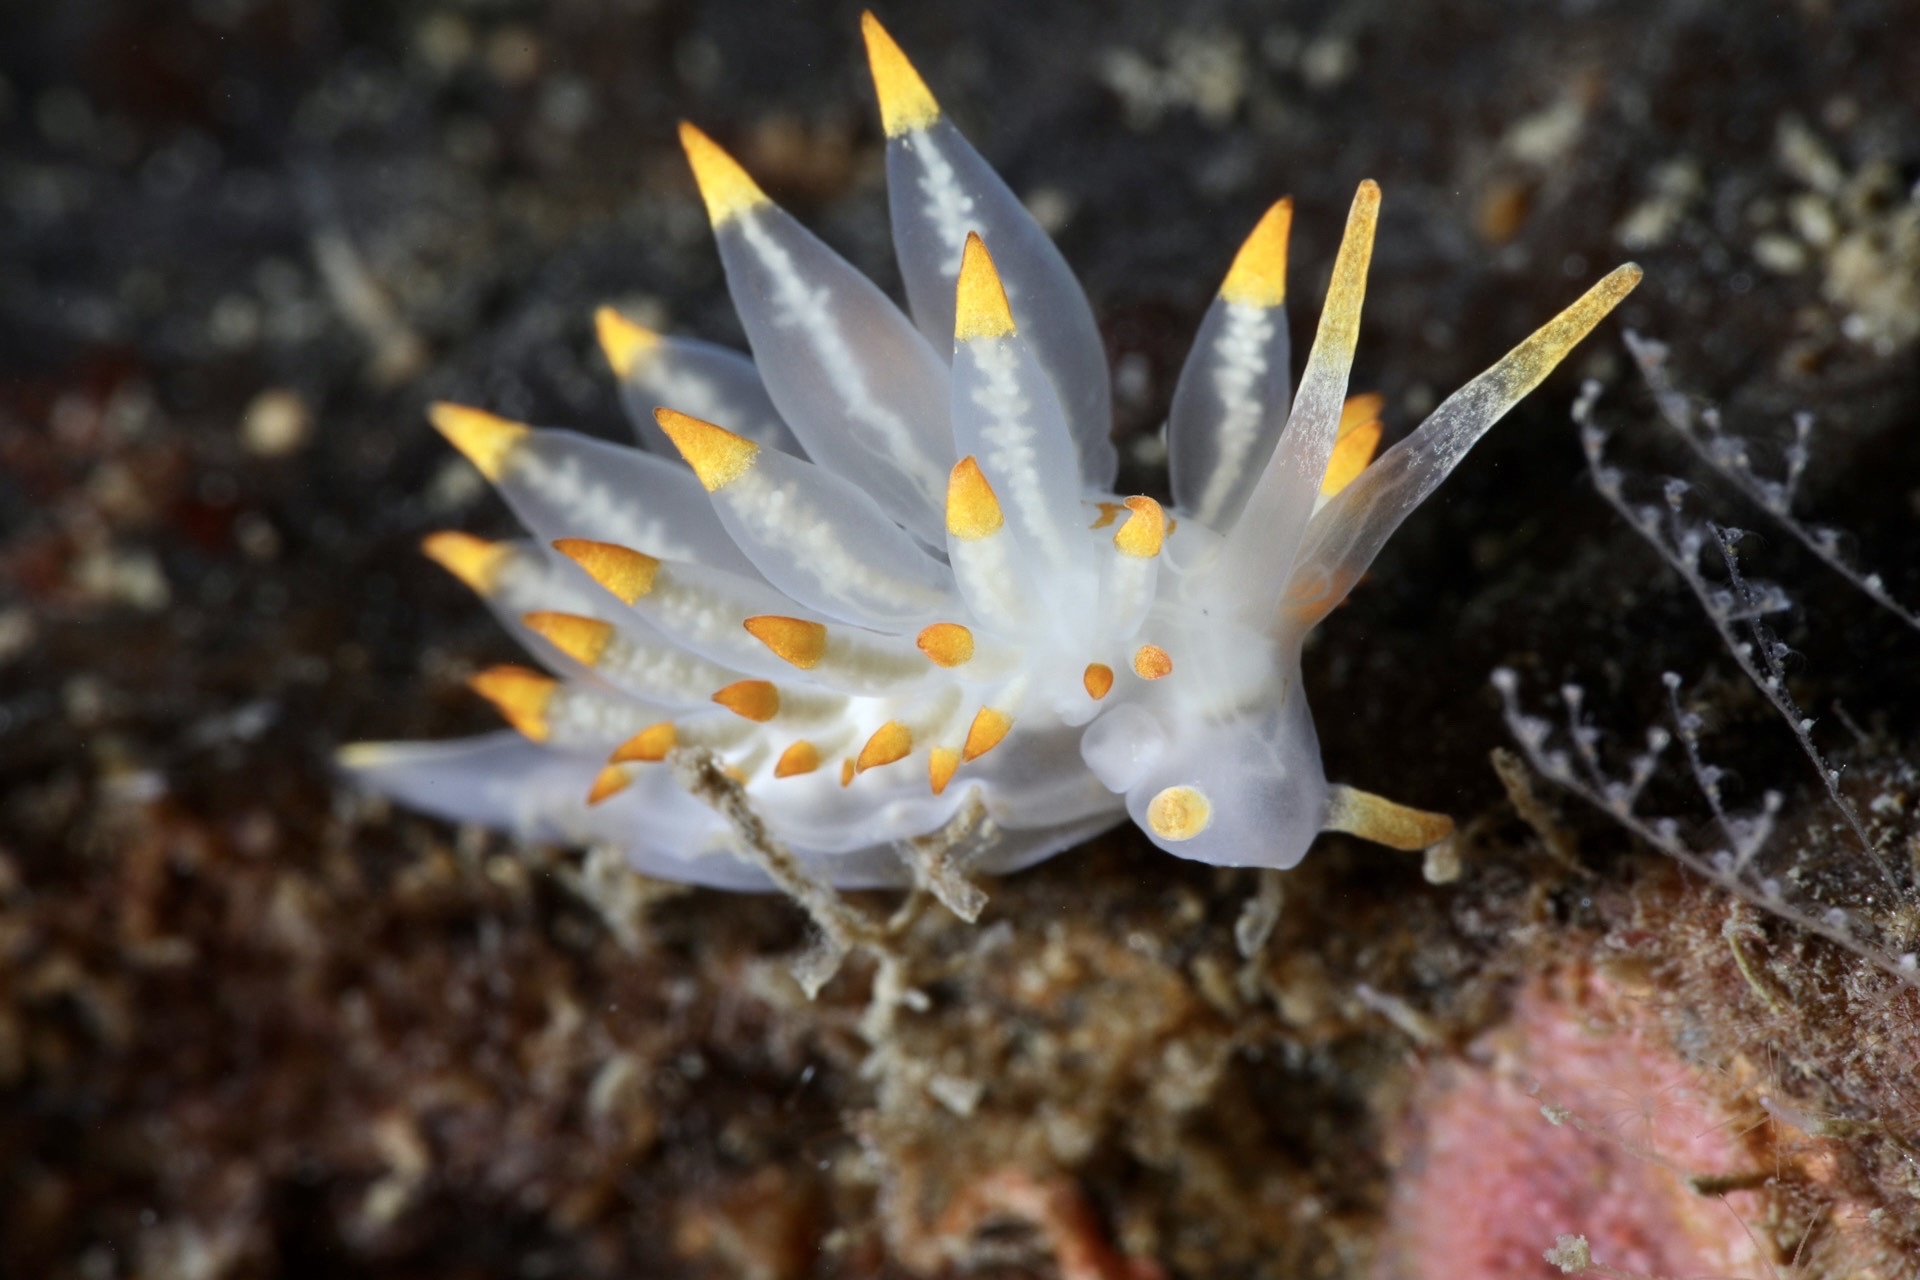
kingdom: Animalia
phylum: Mollusca
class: Gastropoda
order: Nudibranchia
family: Eubranchidae
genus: Amphorina
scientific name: Amphorina farrani
